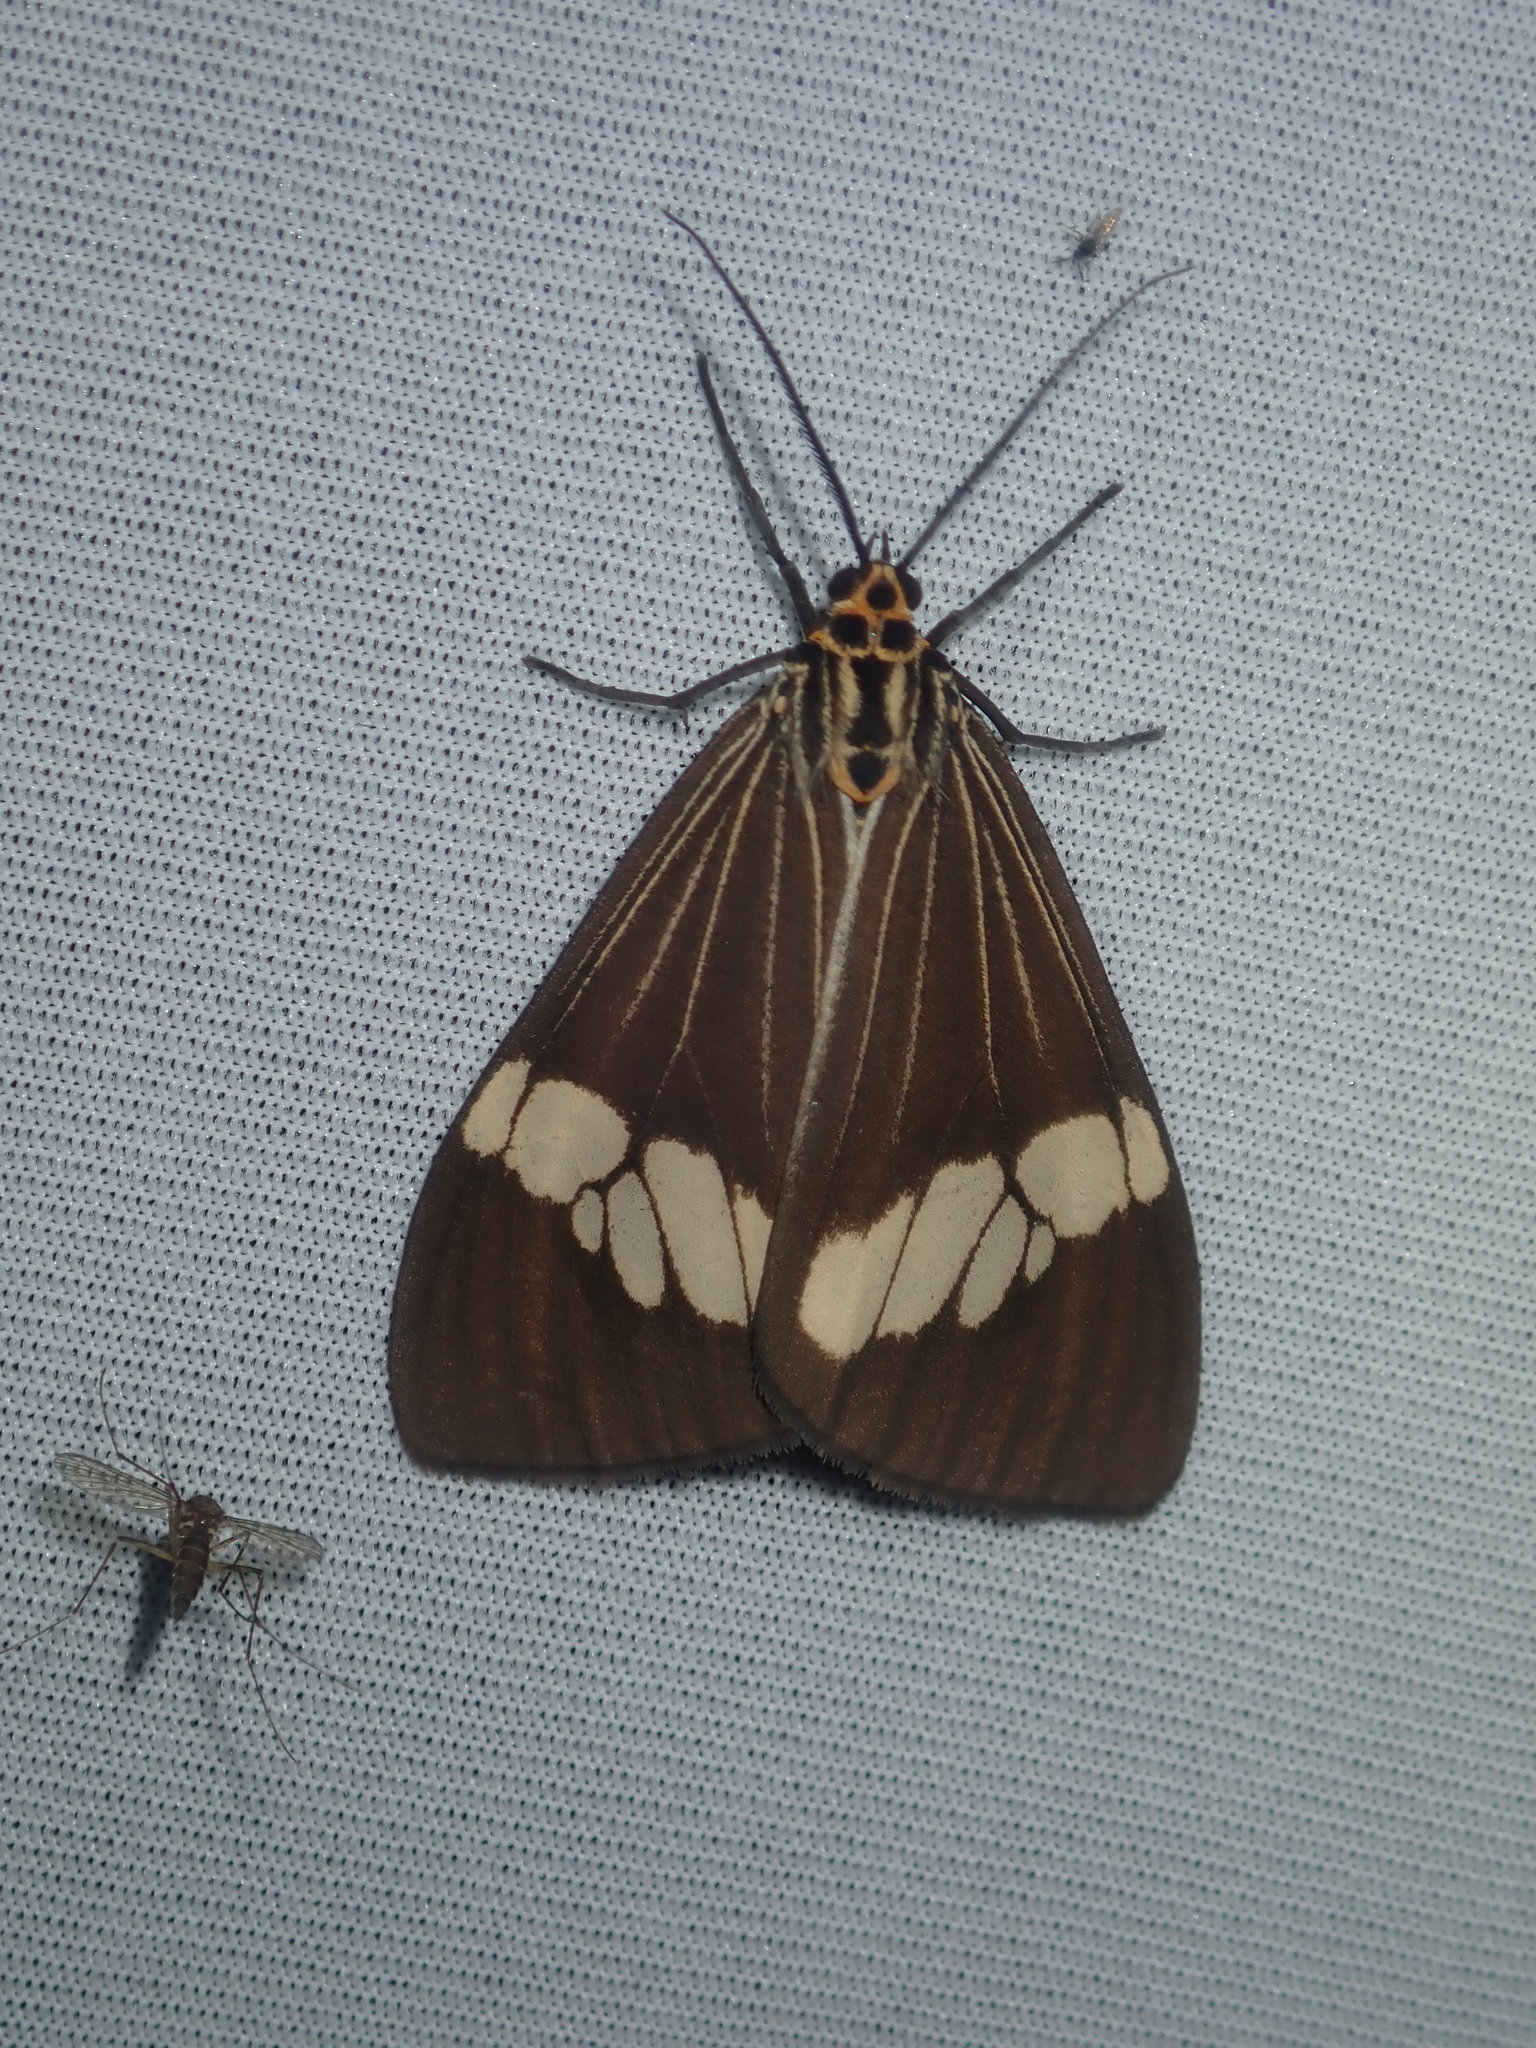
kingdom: Animalia
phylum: Arthropoda
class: Insecta
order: Lepidoptera
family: Erebidae
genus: Nyctemera
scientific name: Nyctemera baulus
